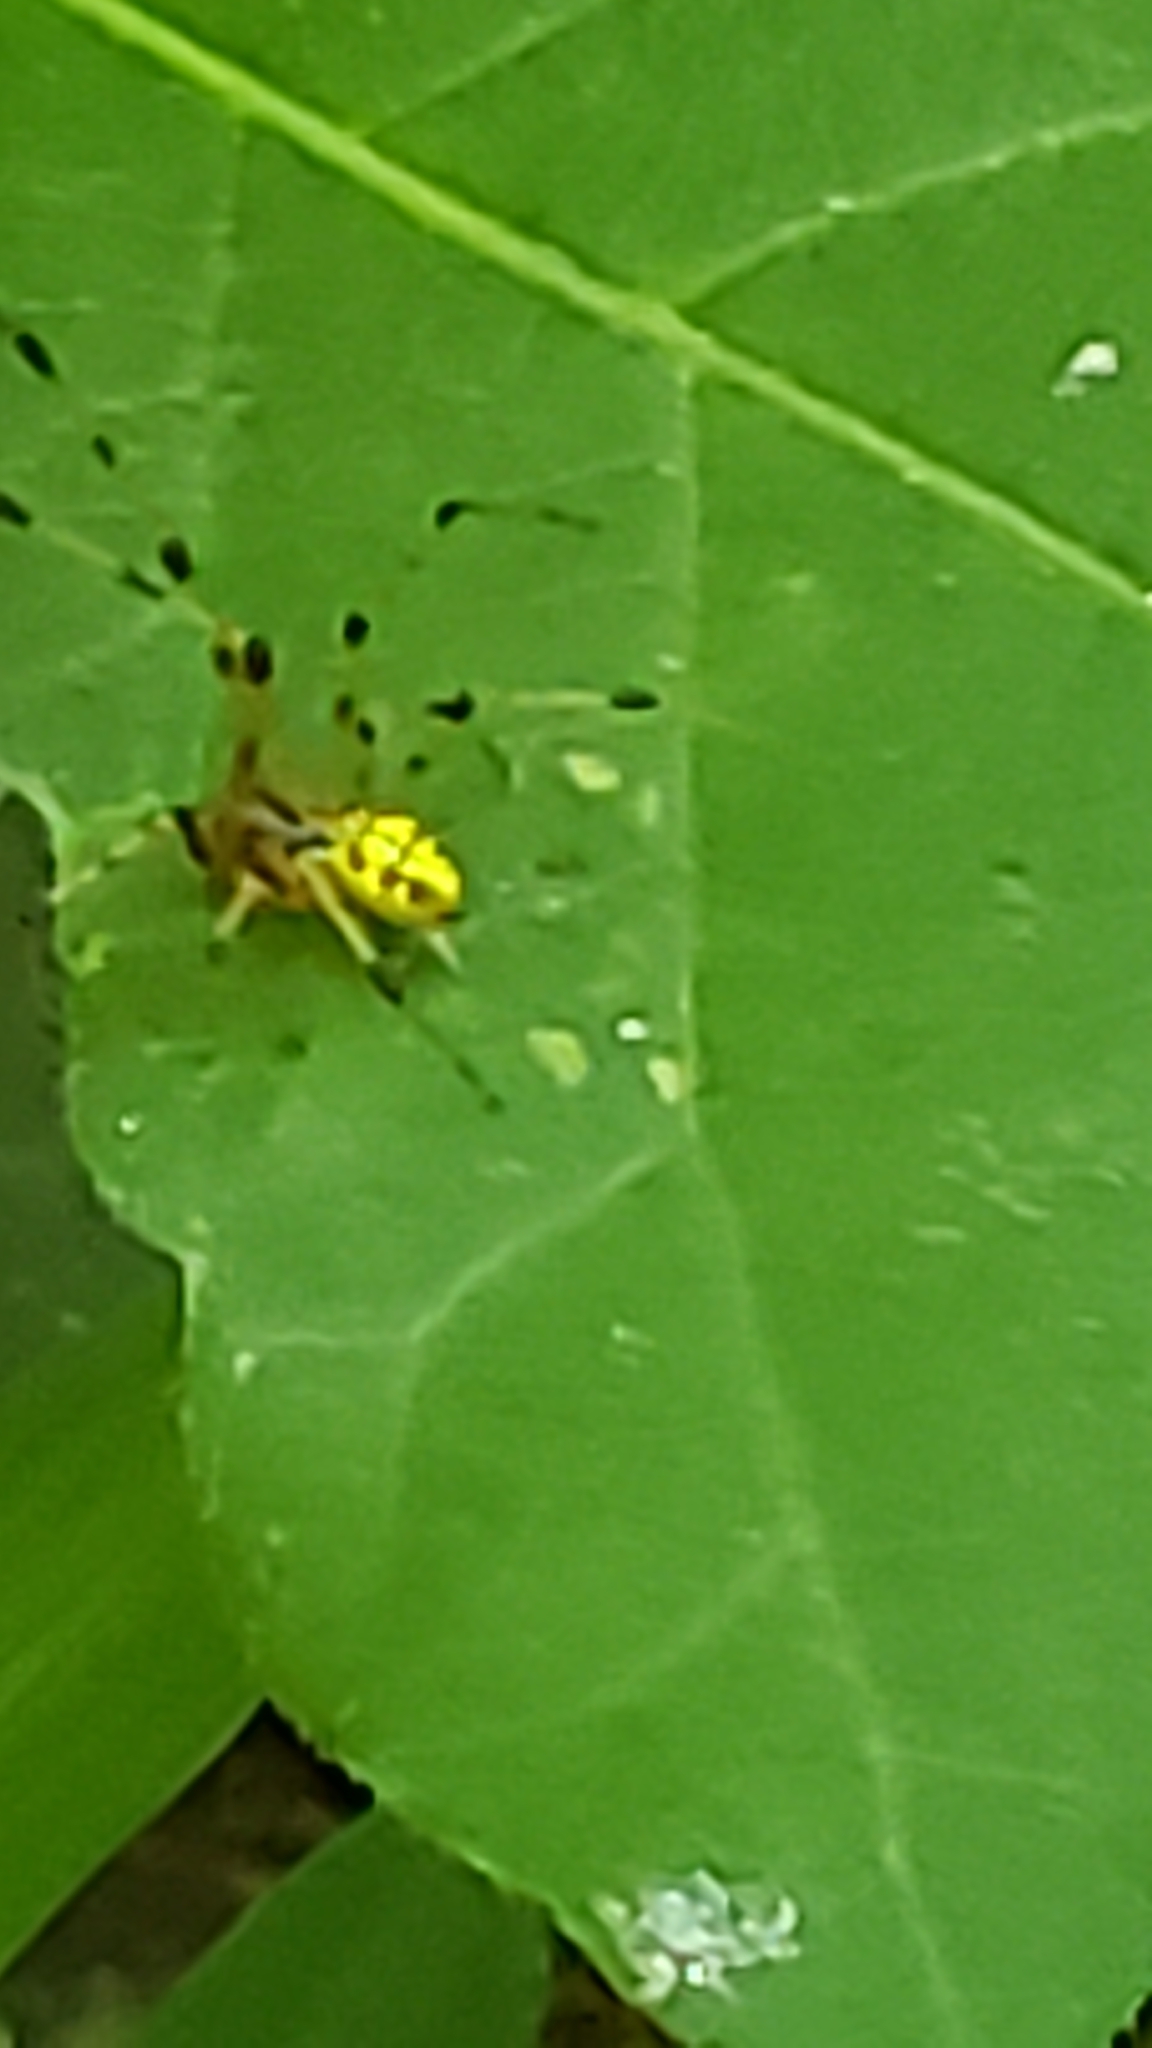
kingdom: Animalia
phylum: Arthropoda
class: Arachnida
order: Araneae
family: Theridiidae
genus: Phylloneta
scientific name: Phylloneta pictipes
